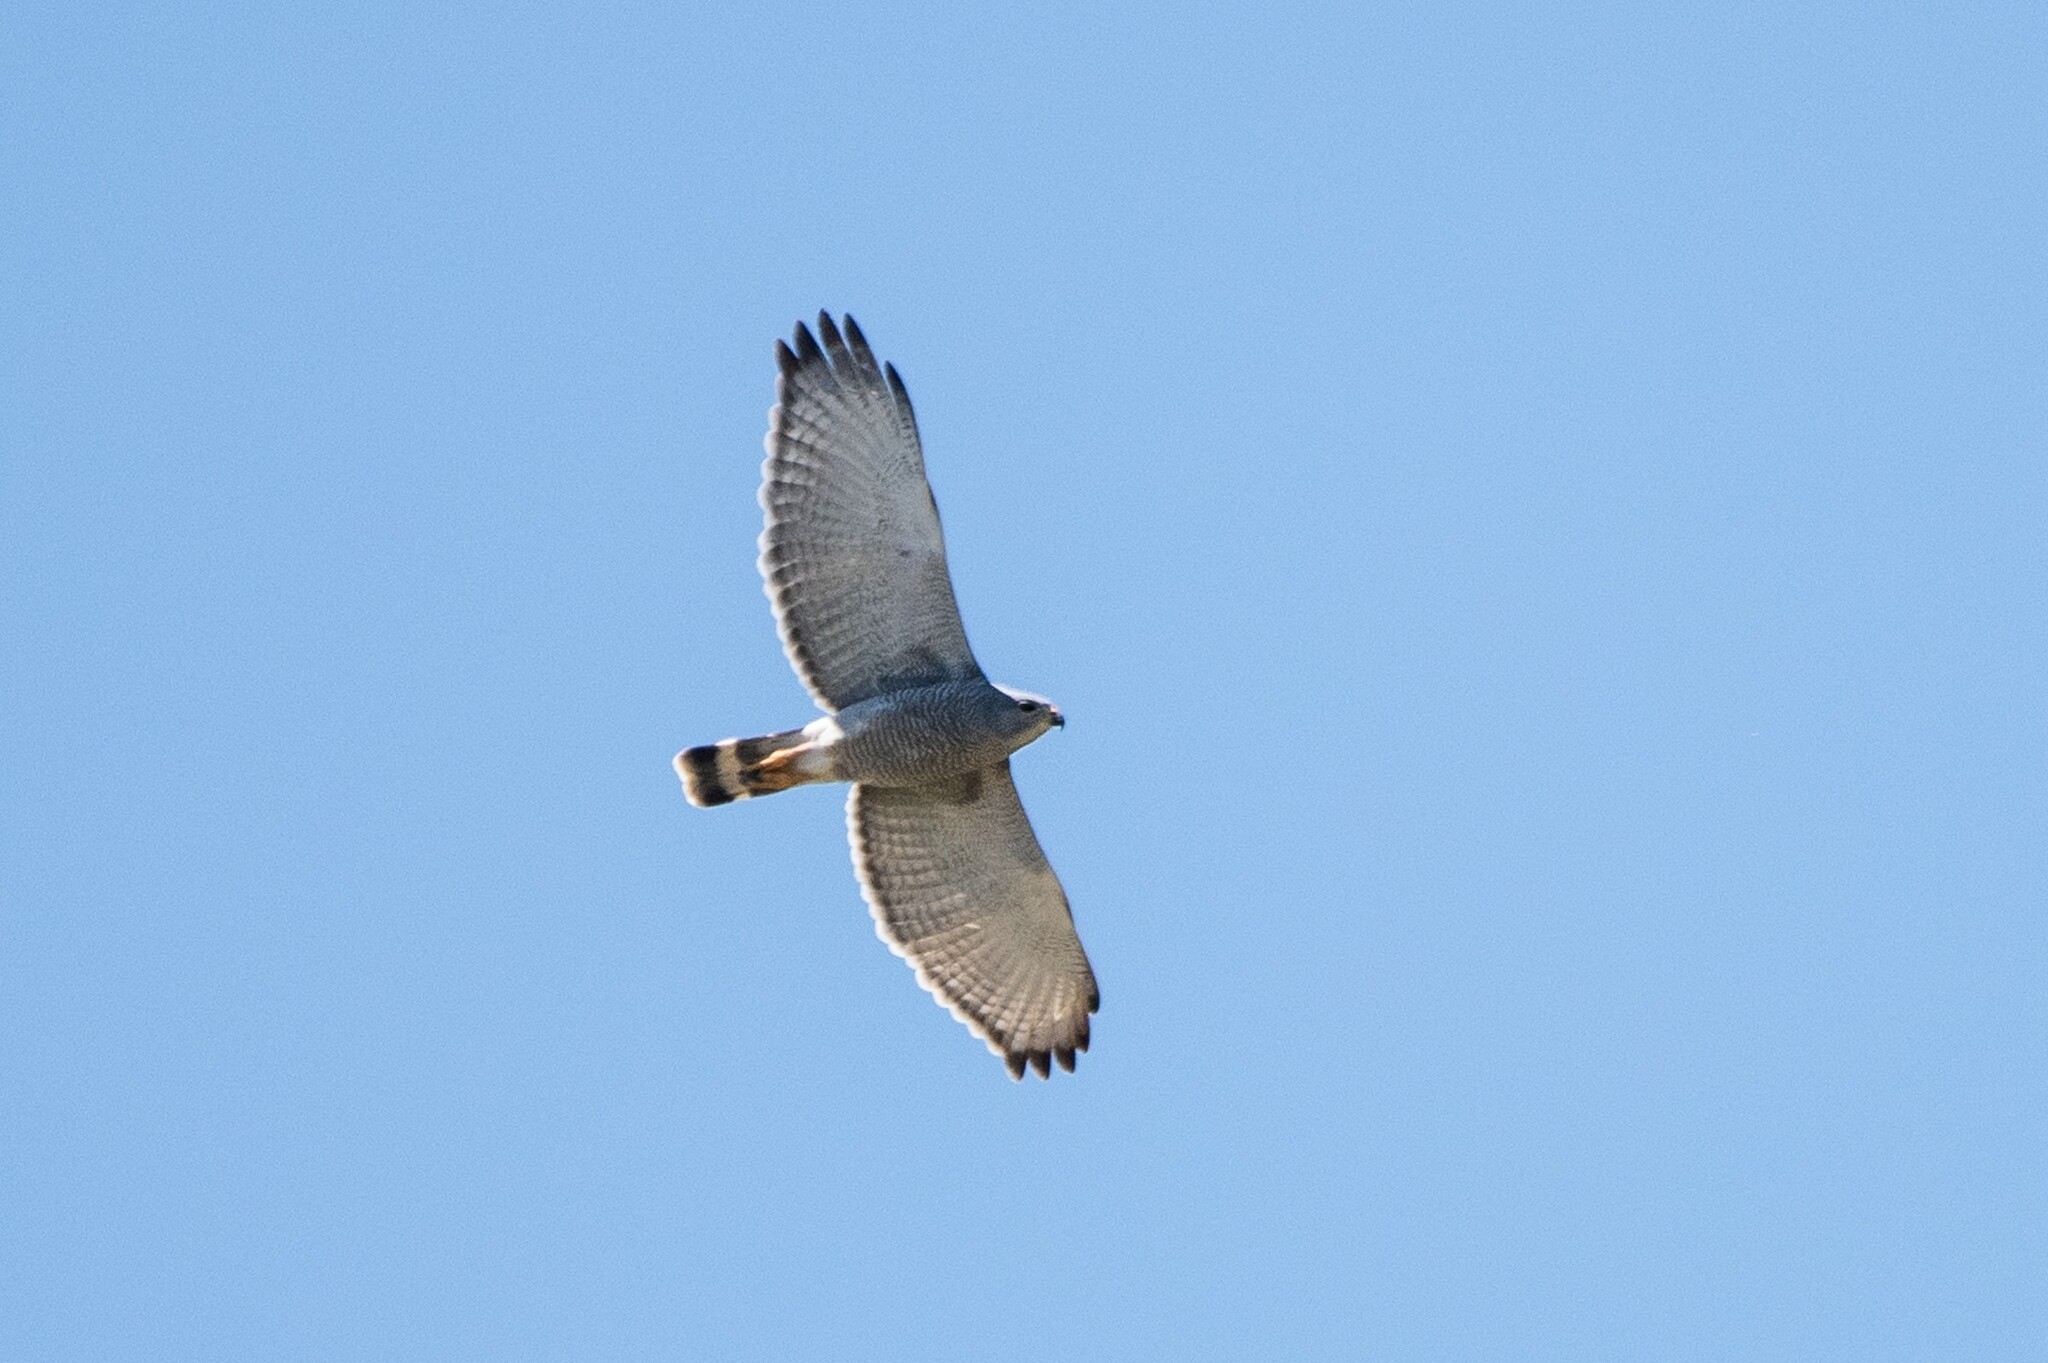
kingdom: Animalia
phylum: Chordata
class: Aves
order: Accipitriformes
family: Accipitridae
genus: Buteo
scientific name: Buteo nitidus
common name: Grey-lined hawk
